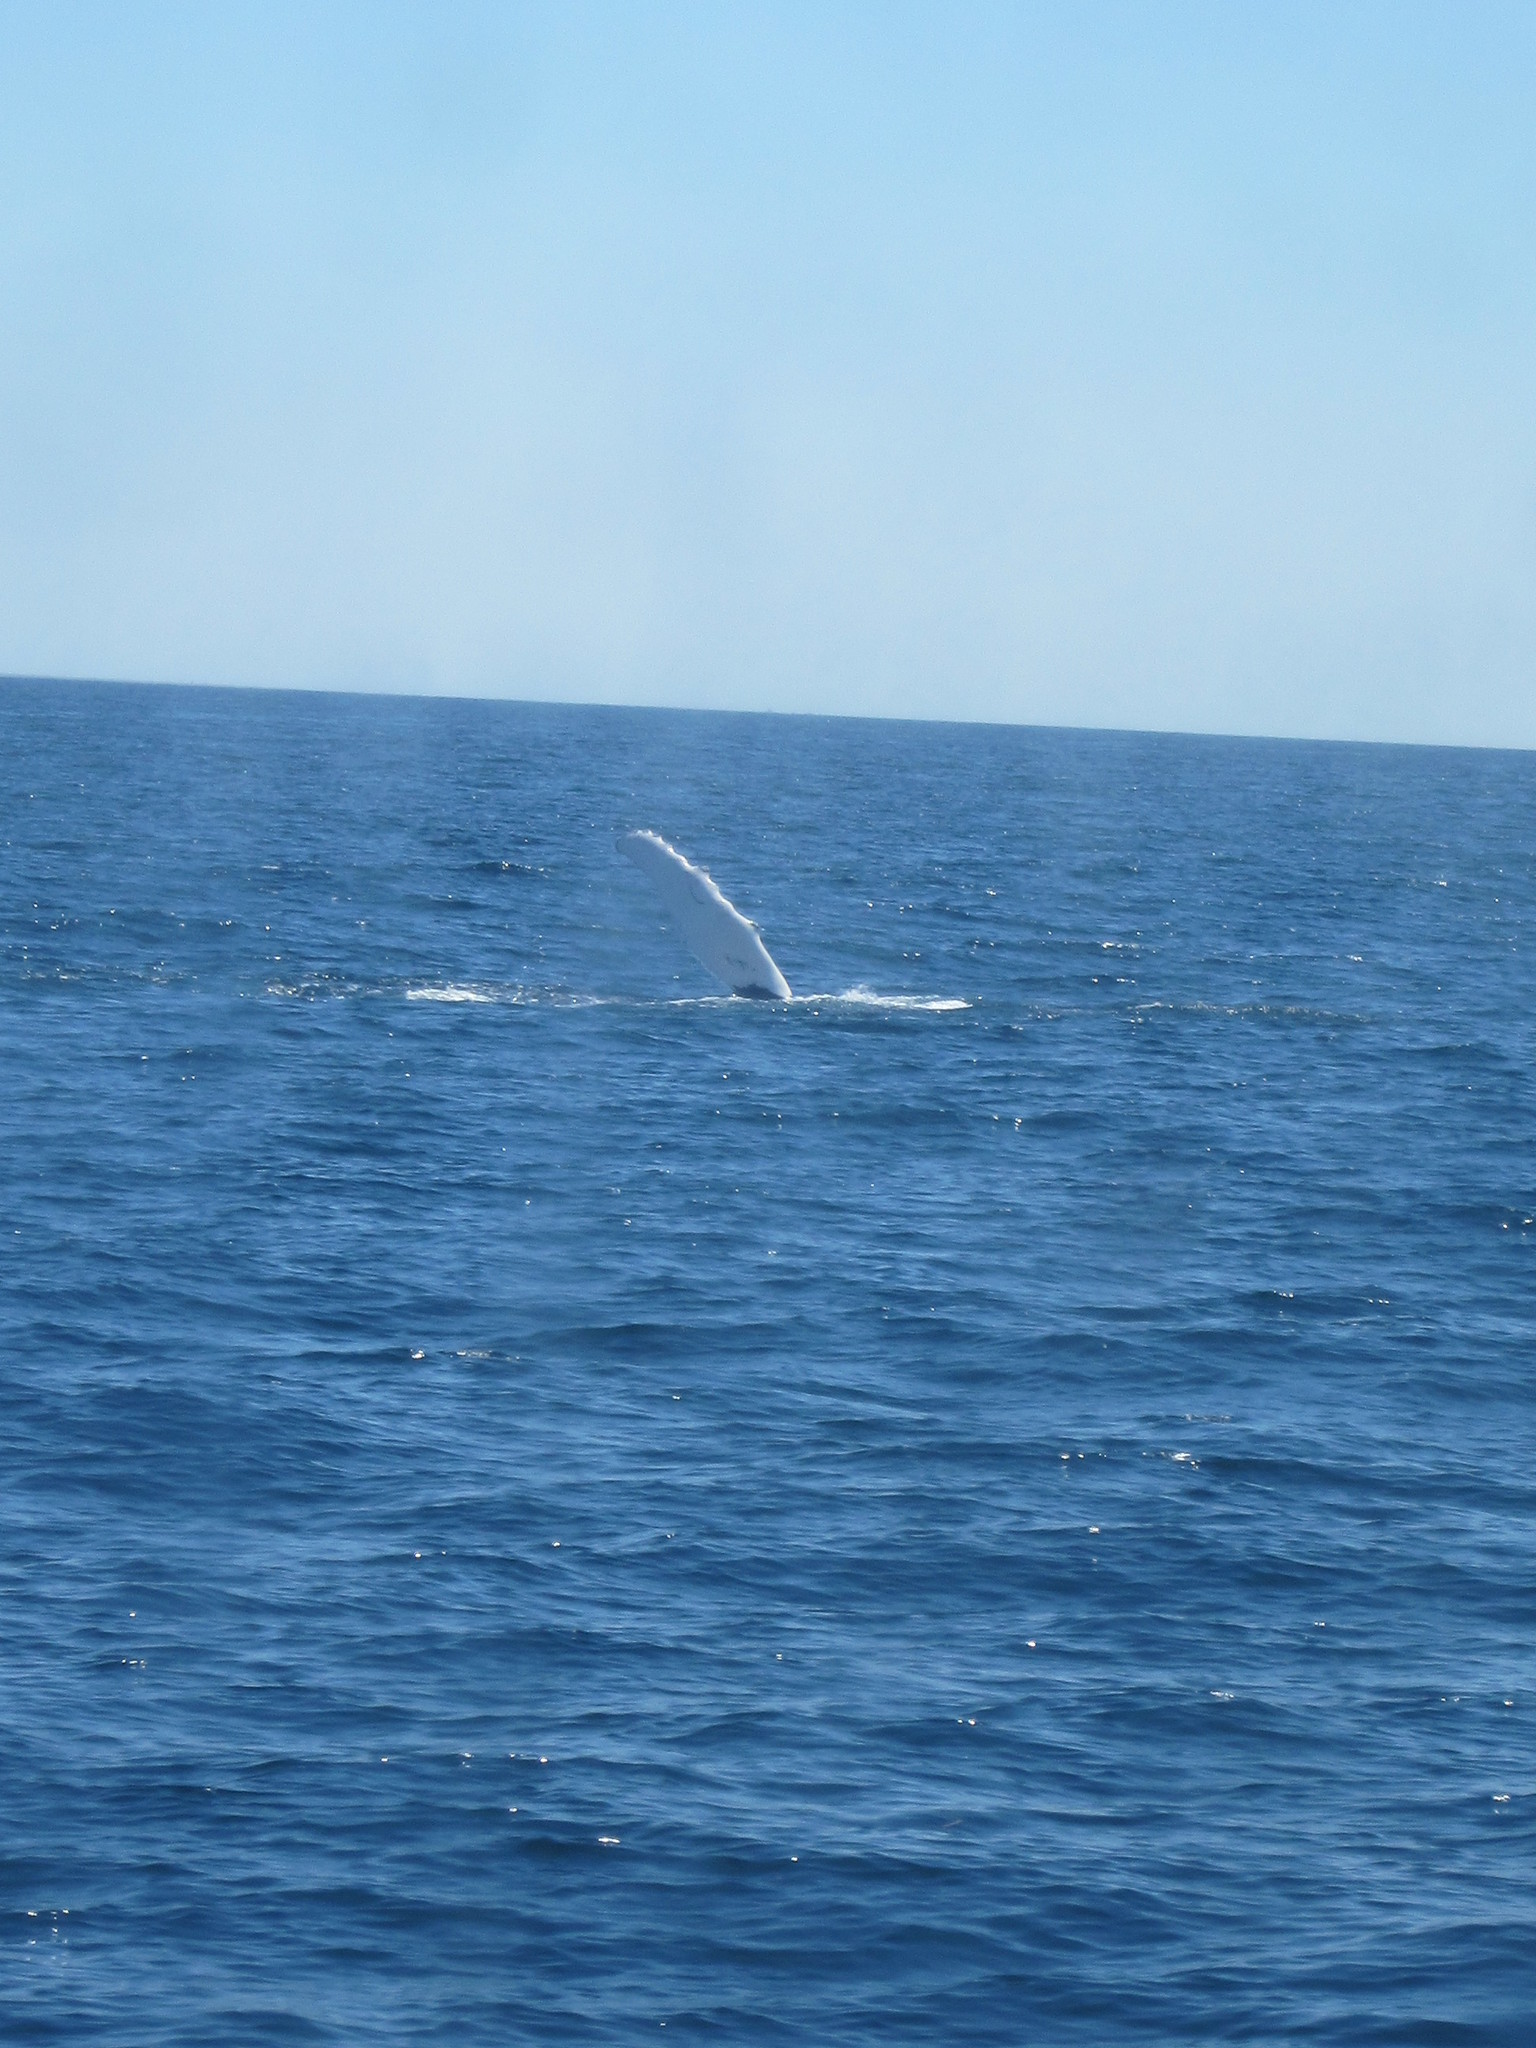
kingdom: Animalia
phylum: Chordata
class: Mammalia
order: Cetacea
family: Balaenopteridae
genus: Megaptera
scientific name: Megaptera novaeangliae
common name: Humpback whale
